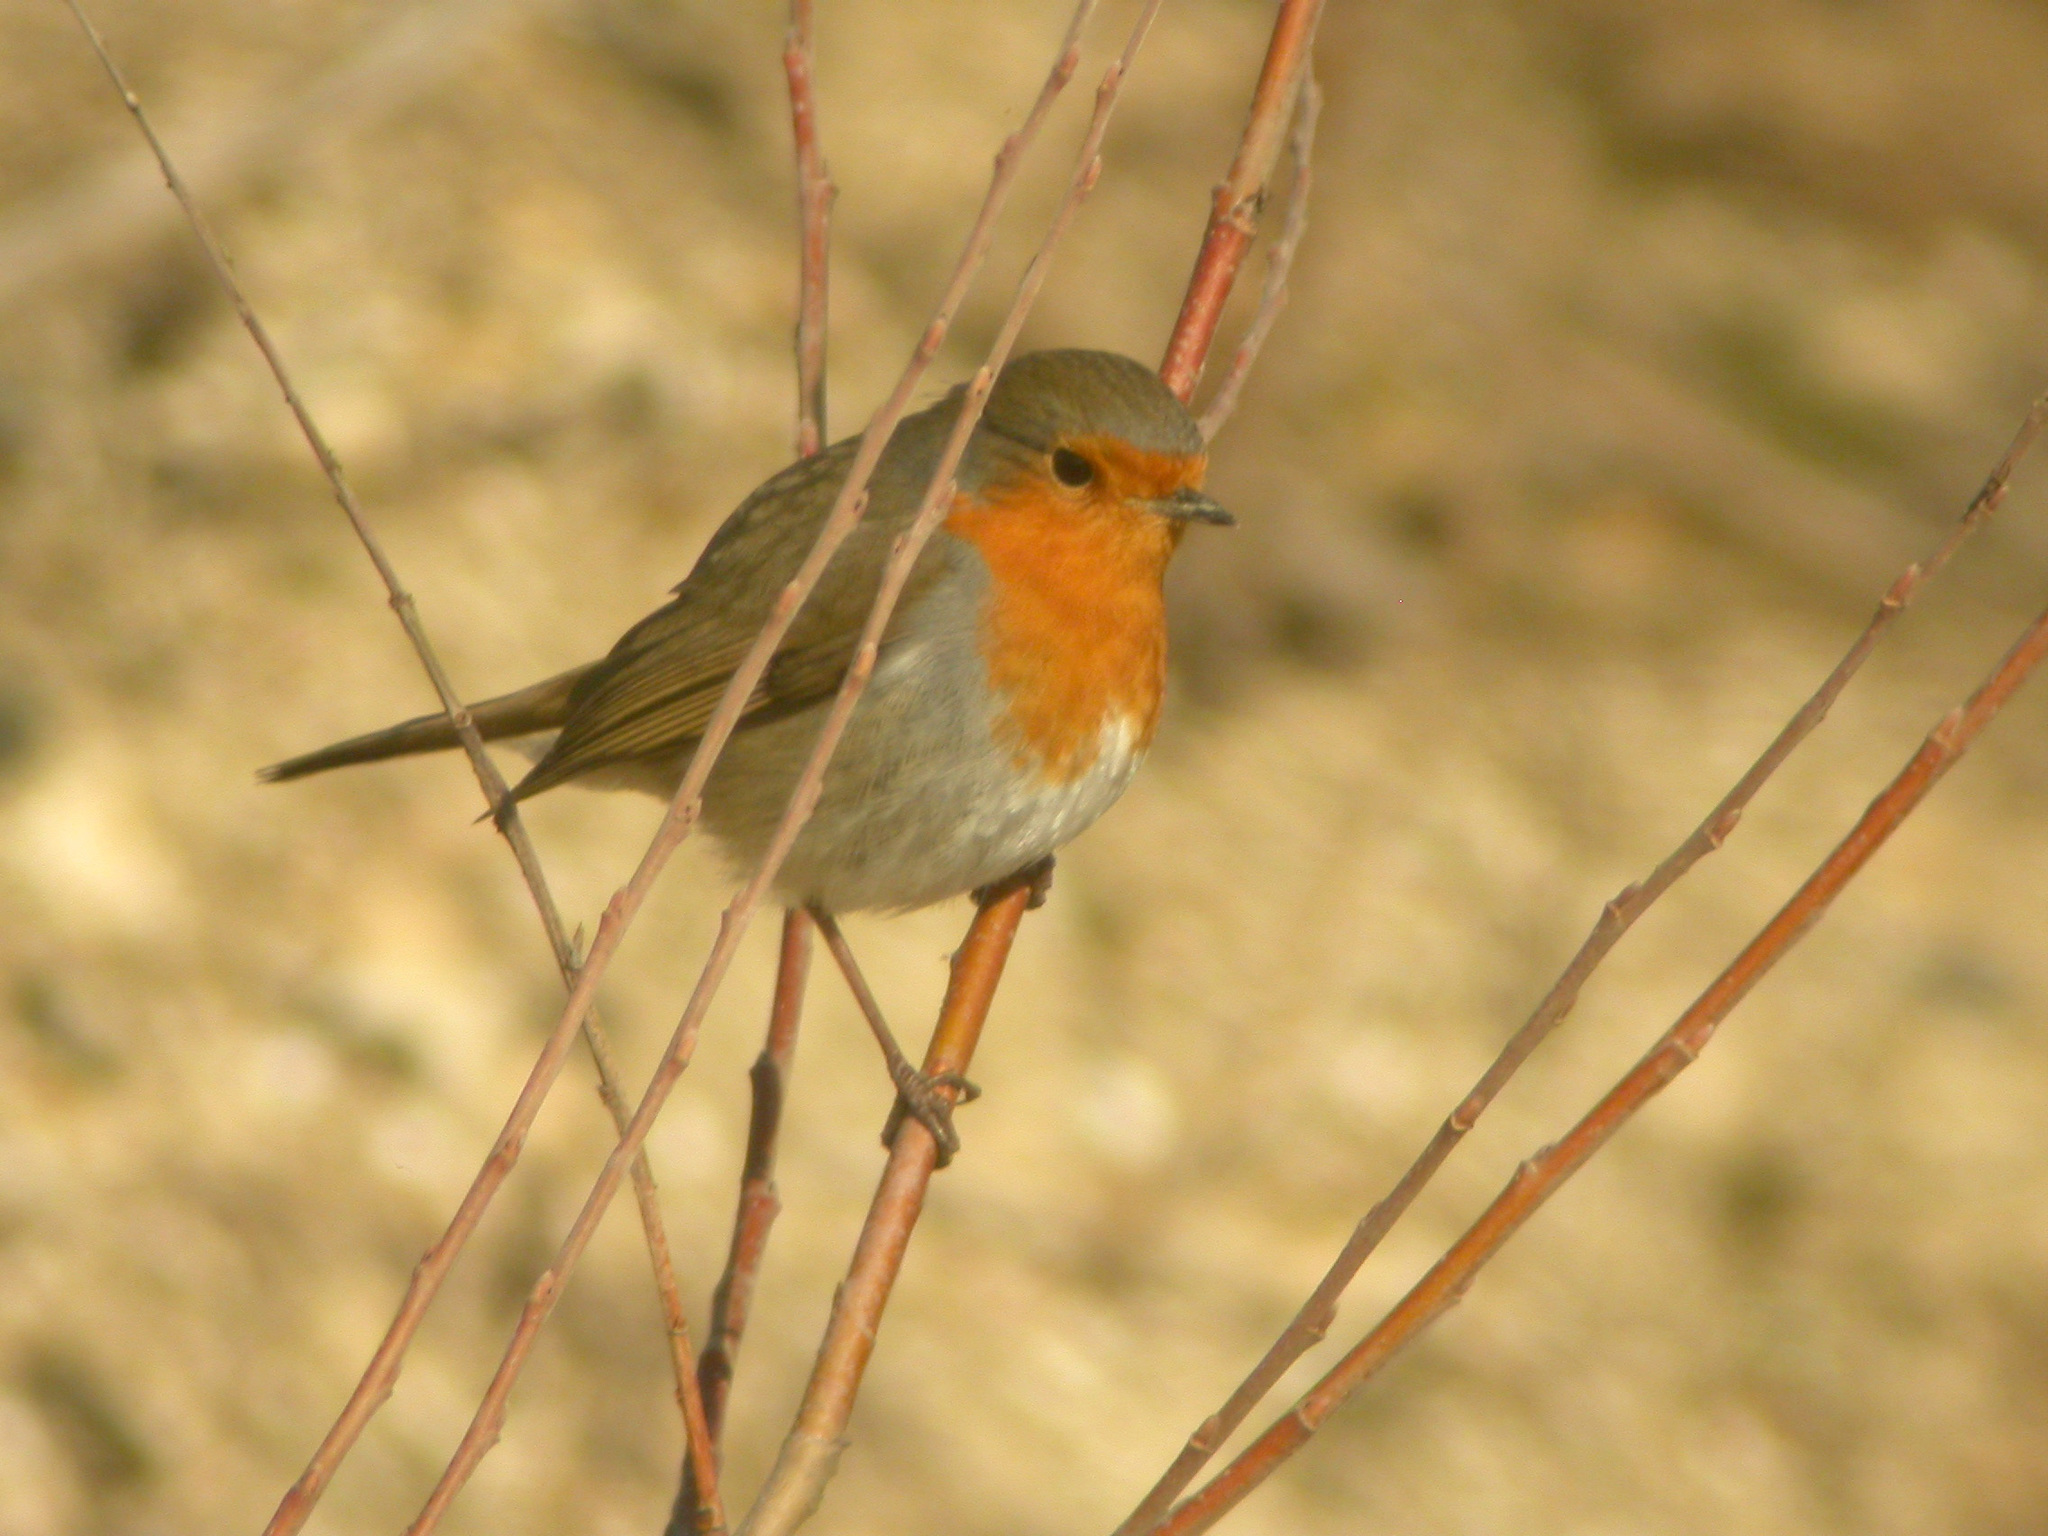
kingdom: Animalia
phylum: Chordata
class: Aves
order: Passeriformes
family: Muscicapidae
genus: Erithacus
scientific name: Erithacus rubecula
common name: European robin
